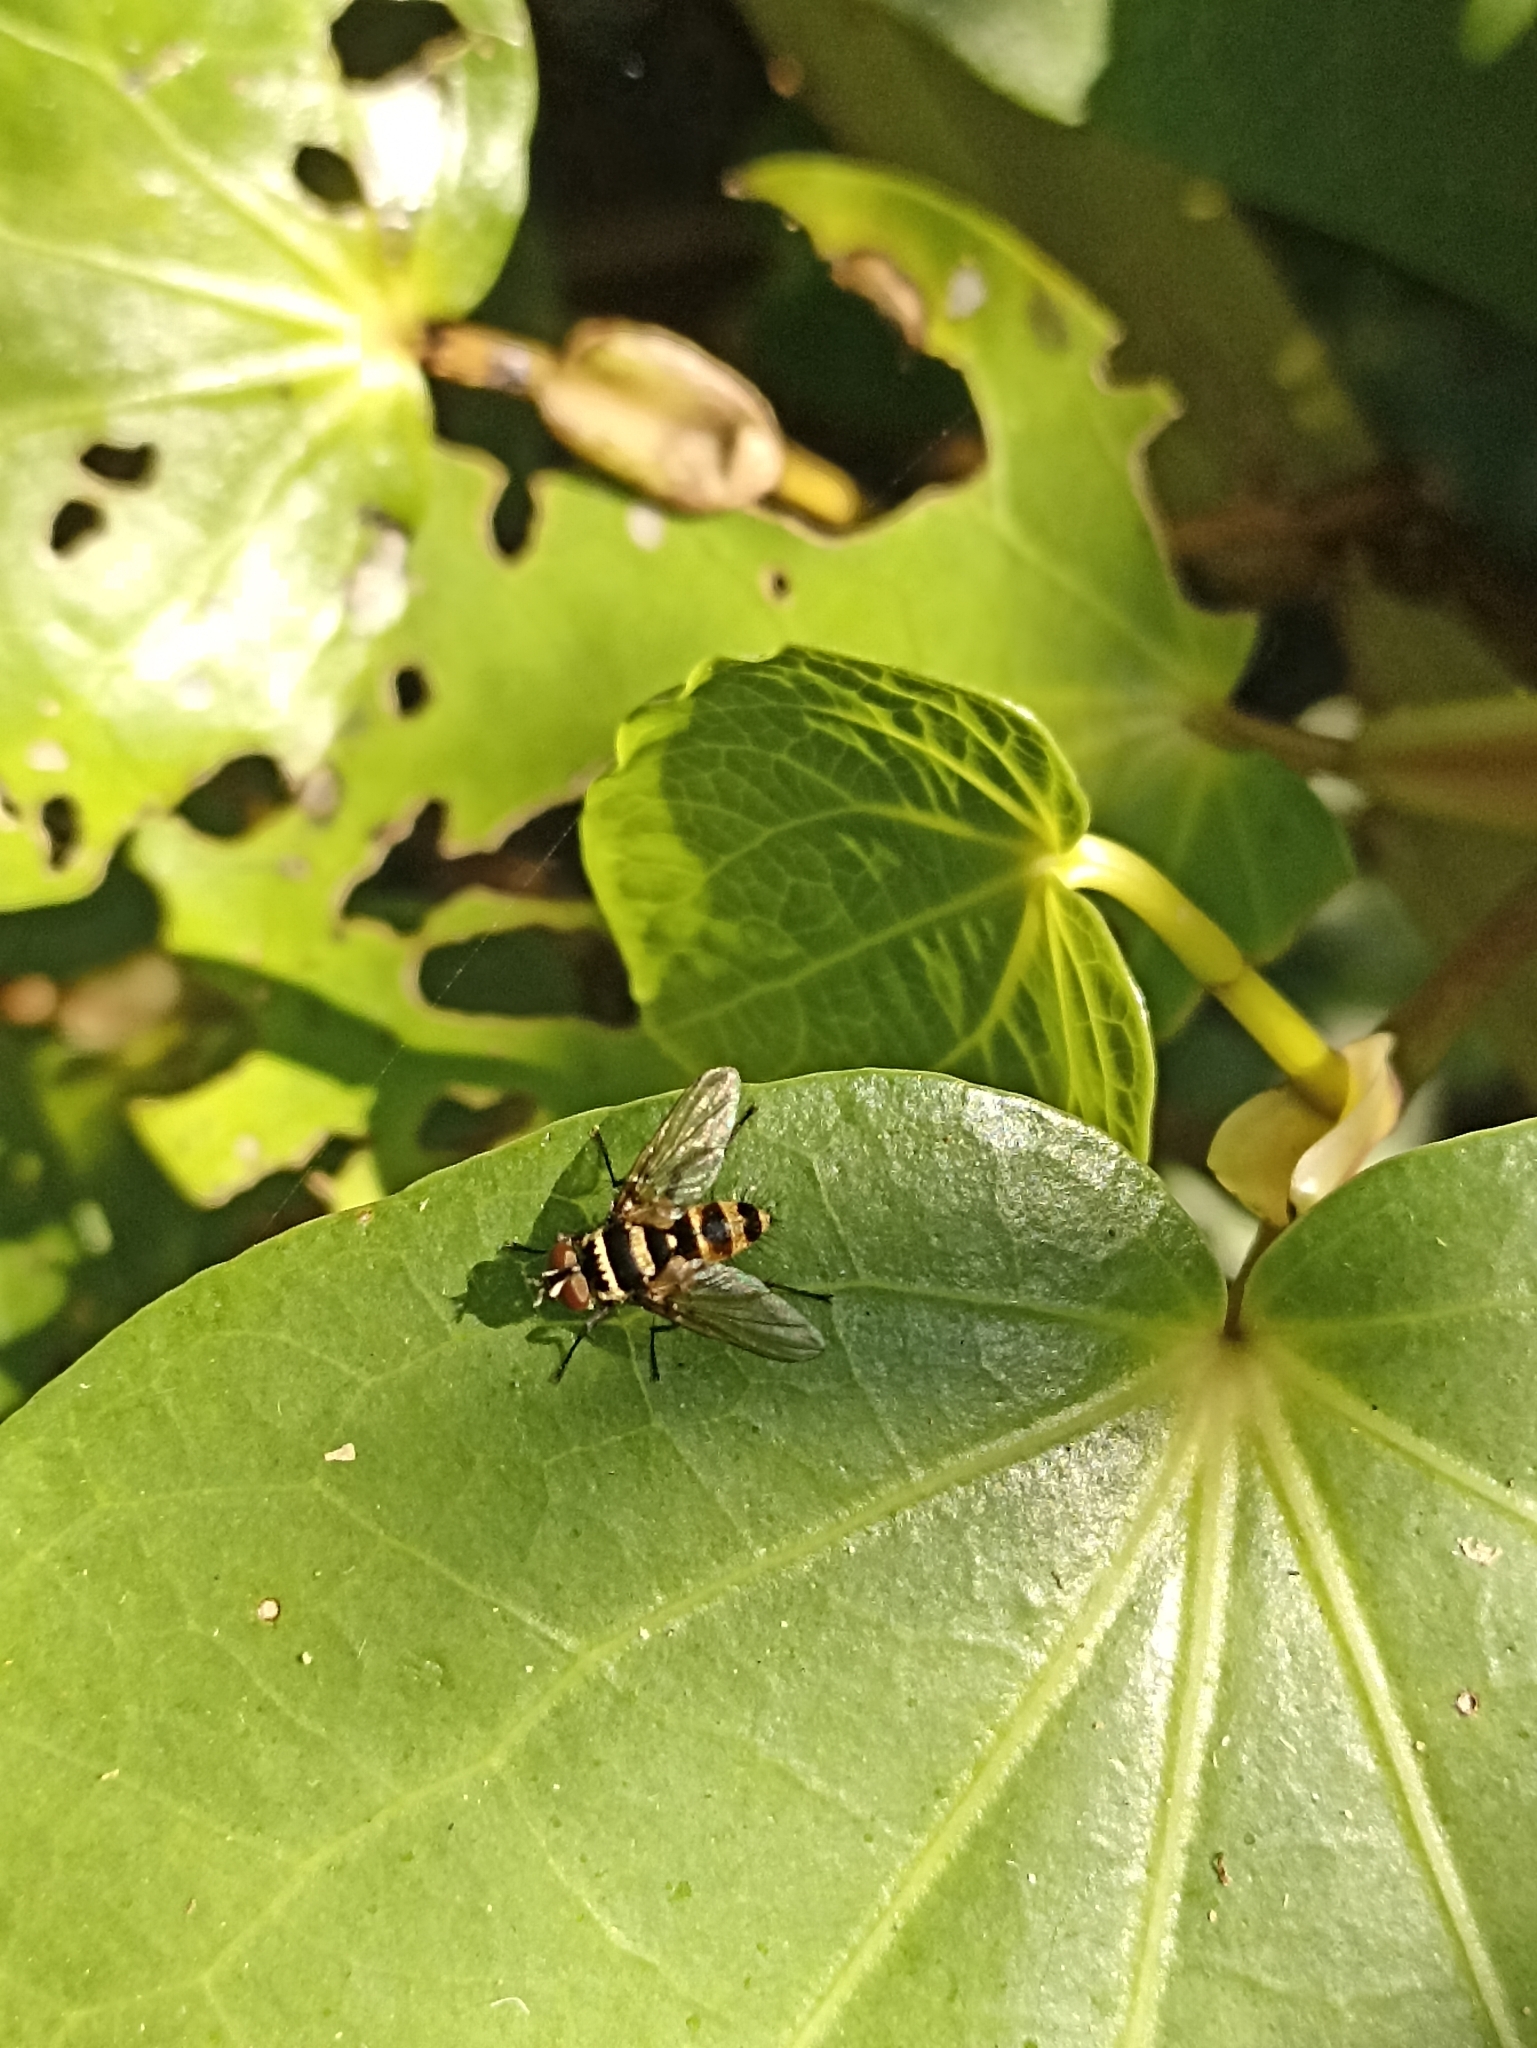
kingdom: Animalia
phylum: Arthropoda
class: Insecta
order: Diptera
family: Tachinidae
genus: Trigonospila
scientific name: Trigonospila brevifacies
